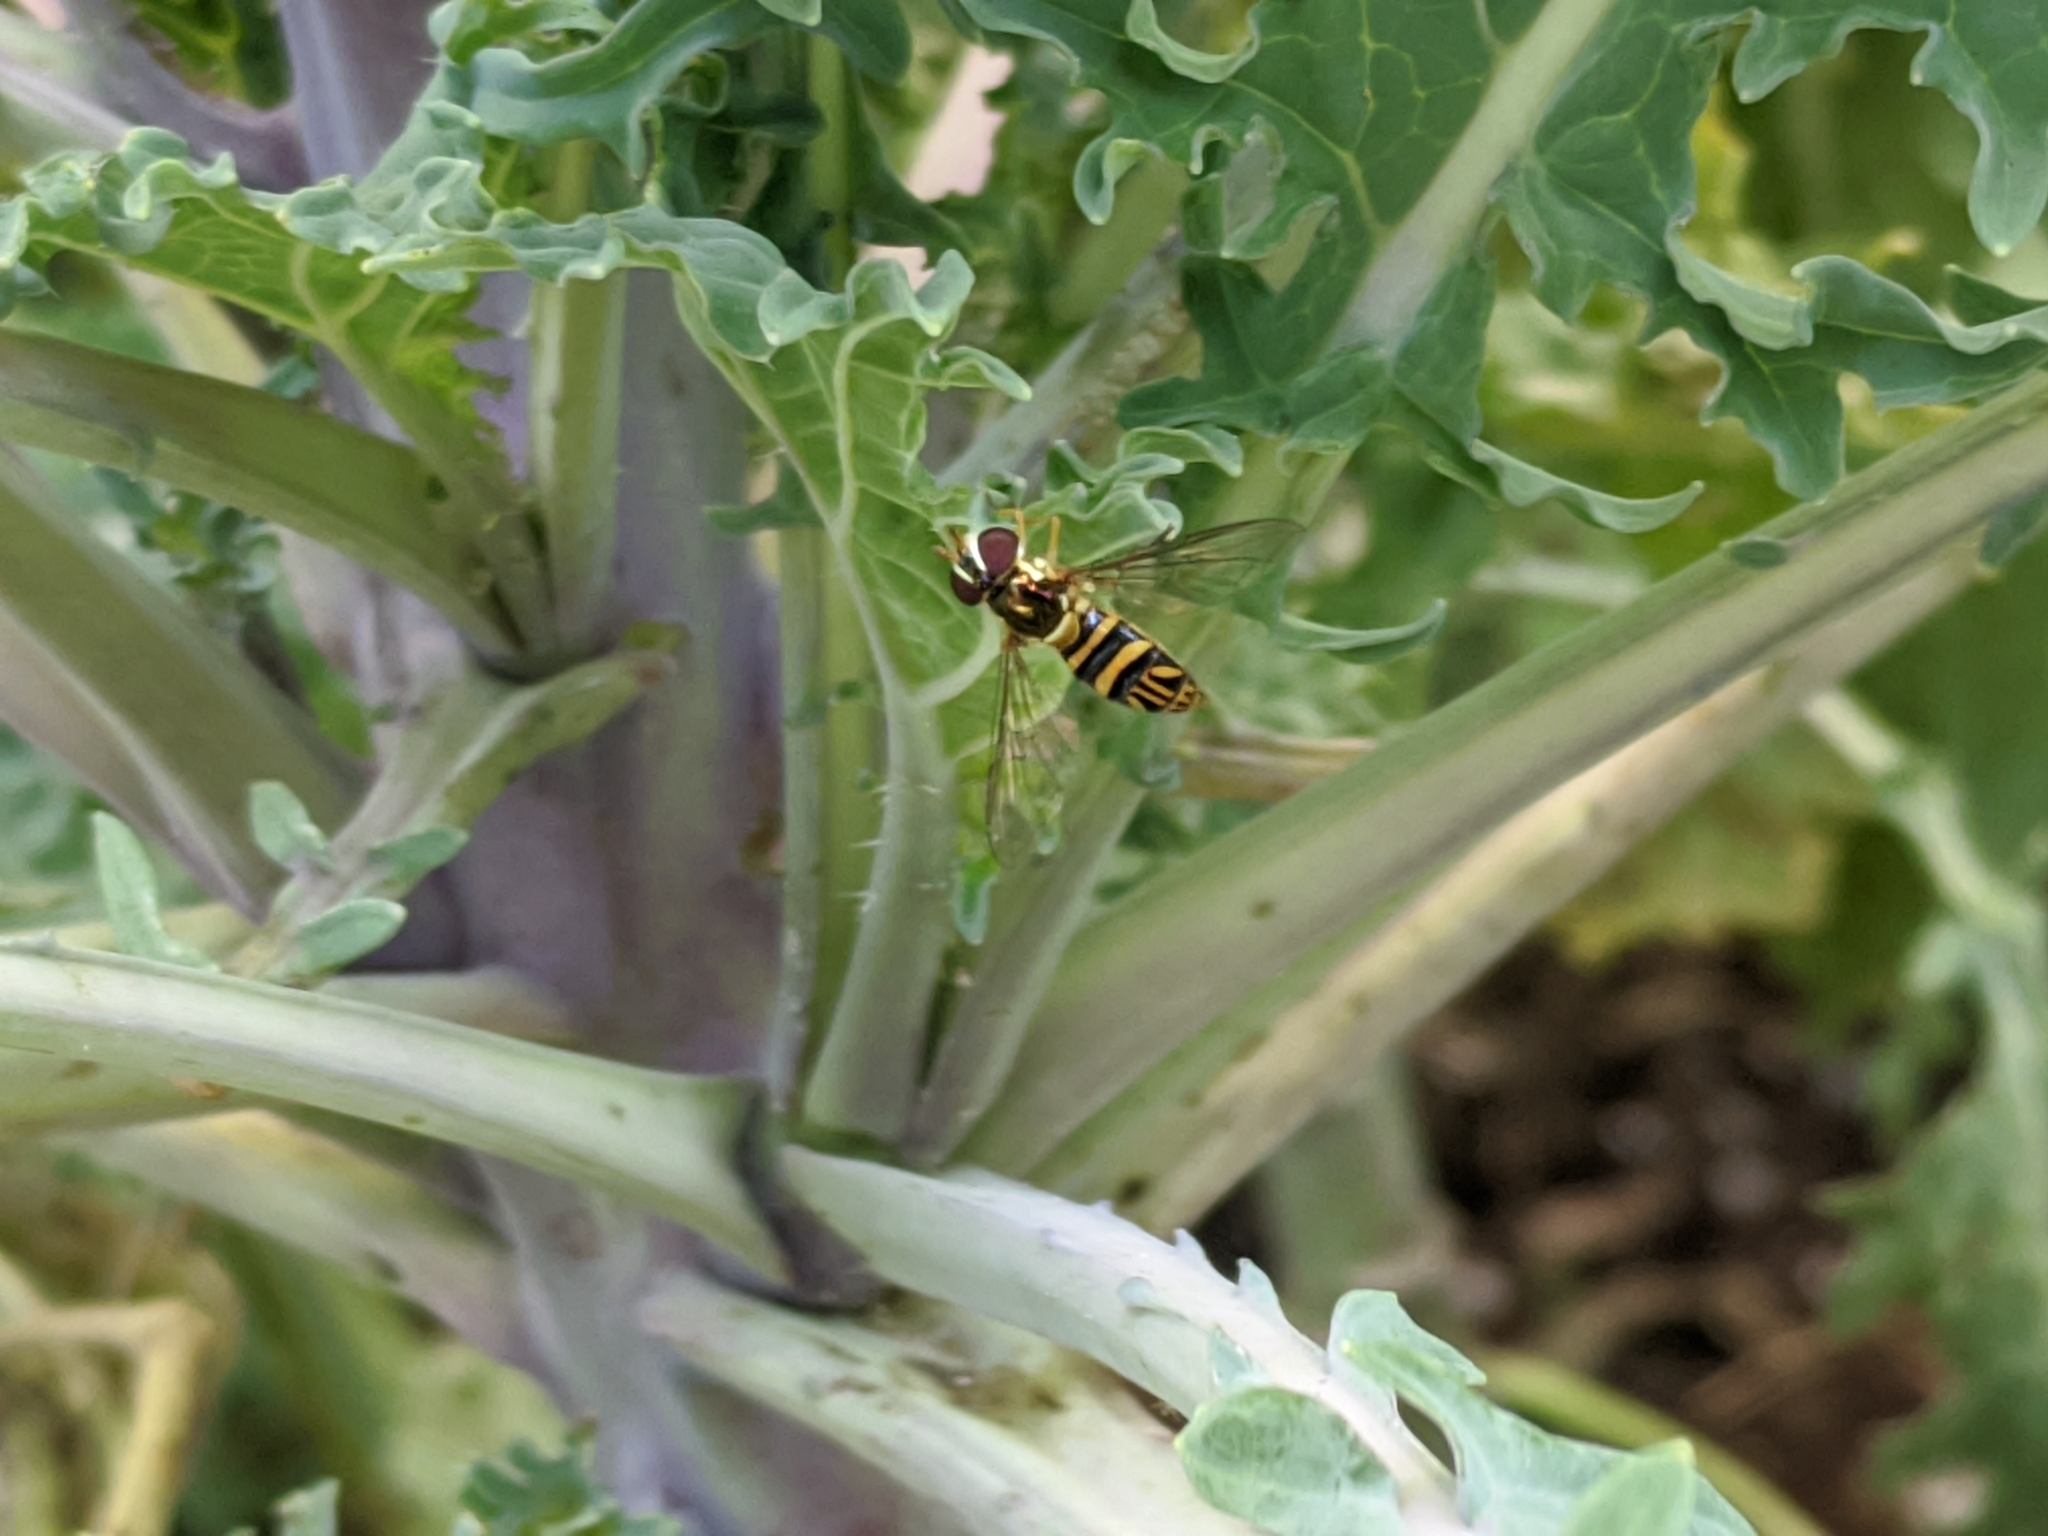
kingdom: Animalia
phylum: Arthropoda
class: Insecta
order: Diptera
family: Syrphidae
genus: Allograpta
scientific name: Allograpta obliqua
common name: Common oblique syrphid
